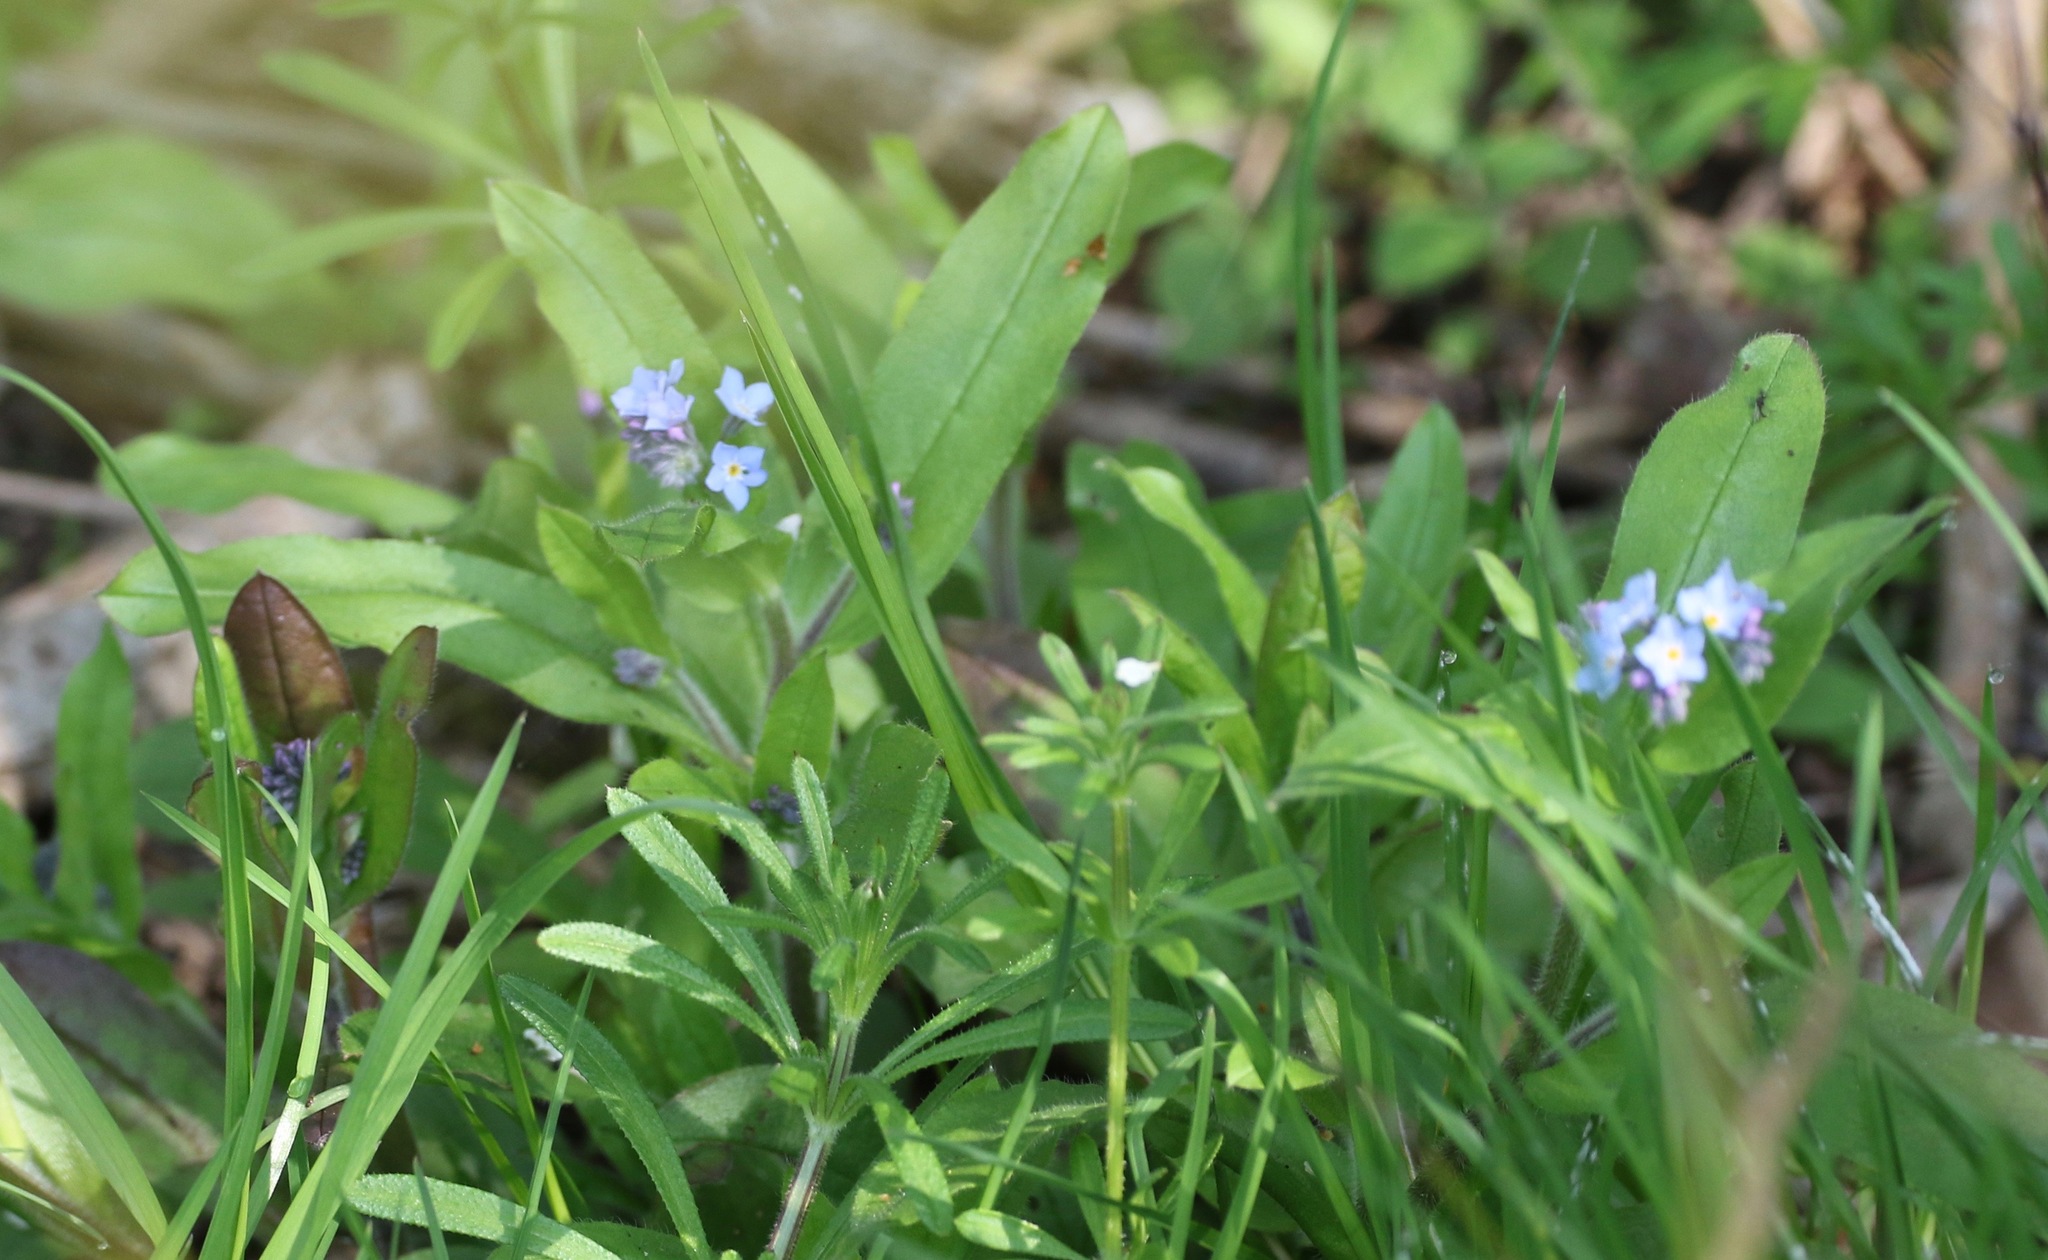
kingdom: Plantae
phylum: Tracheophyta
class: Magnoliopsida
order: Boraginales
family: Boraginaceae
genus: Myosotis
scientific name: Myosotis sylvatica
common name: Wood forget-me-not
